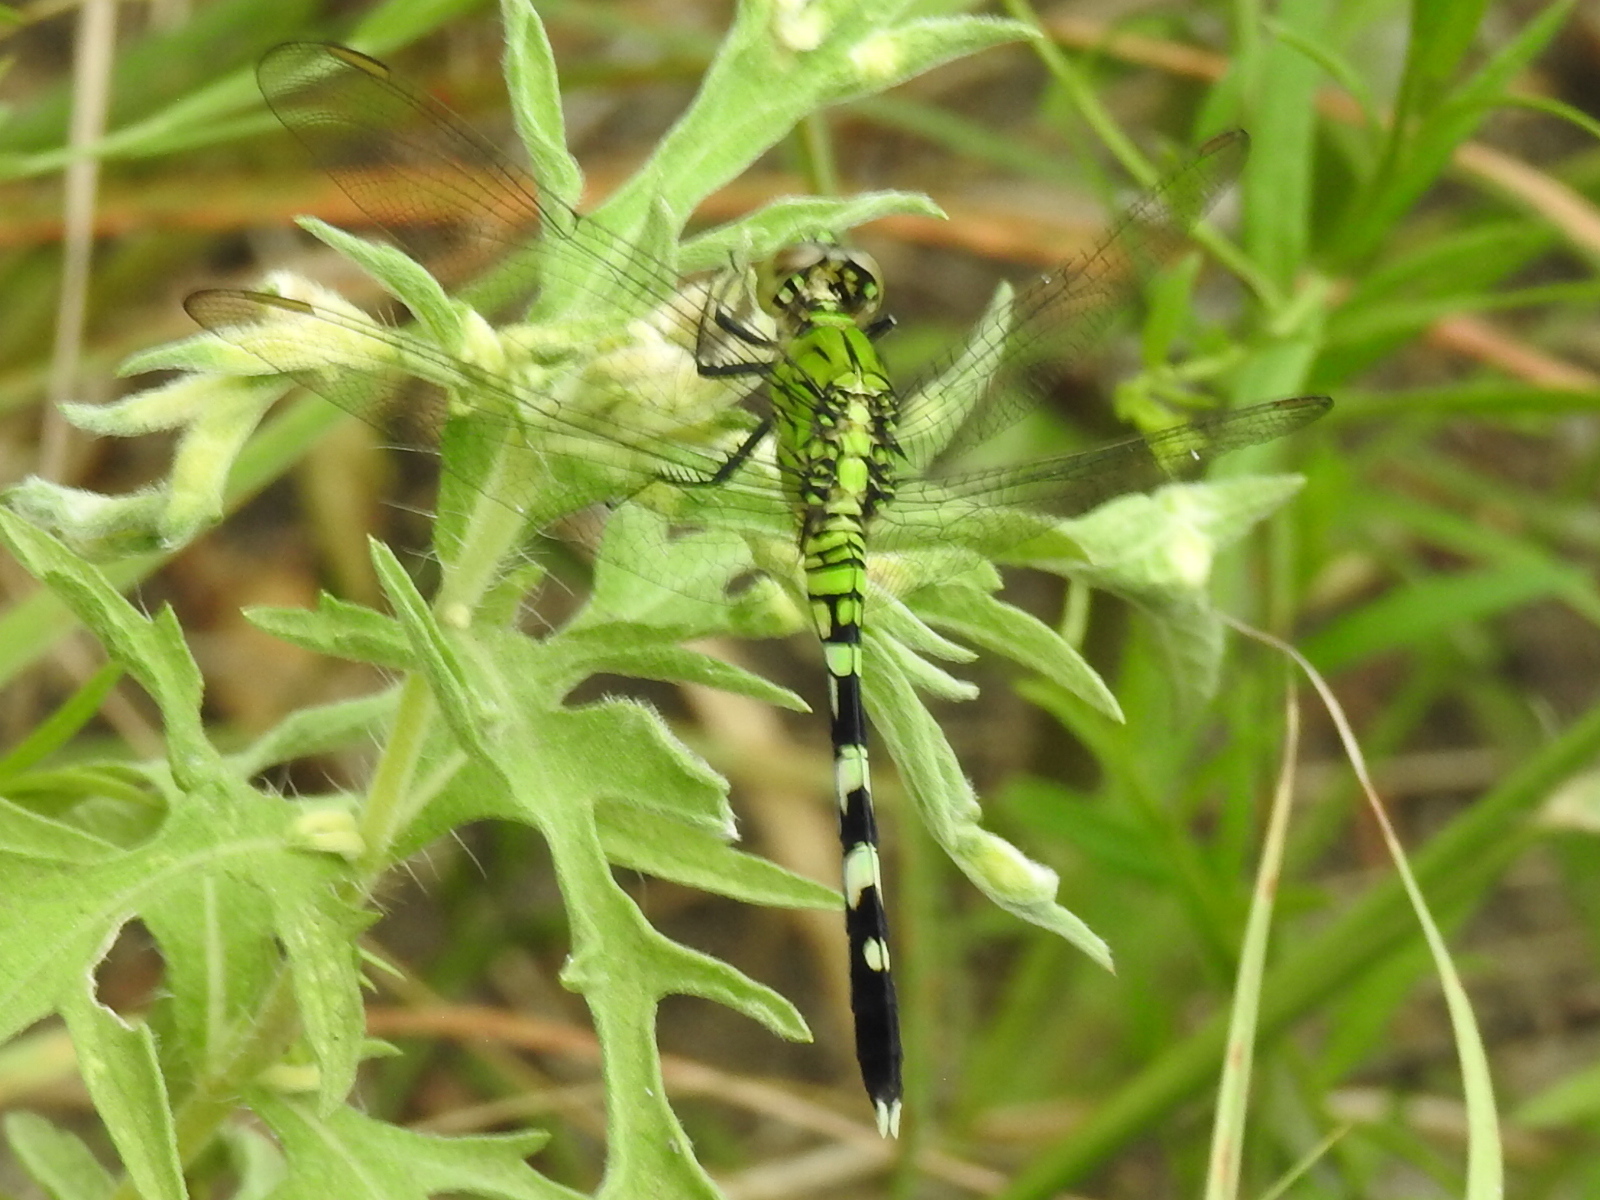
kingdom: Animalia
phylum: Arthropoda
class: Insecta
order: Odonata
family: Libellulidae
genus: Erythemis
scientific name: Erythemis simplicicollis
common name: Eastern pondhawk
